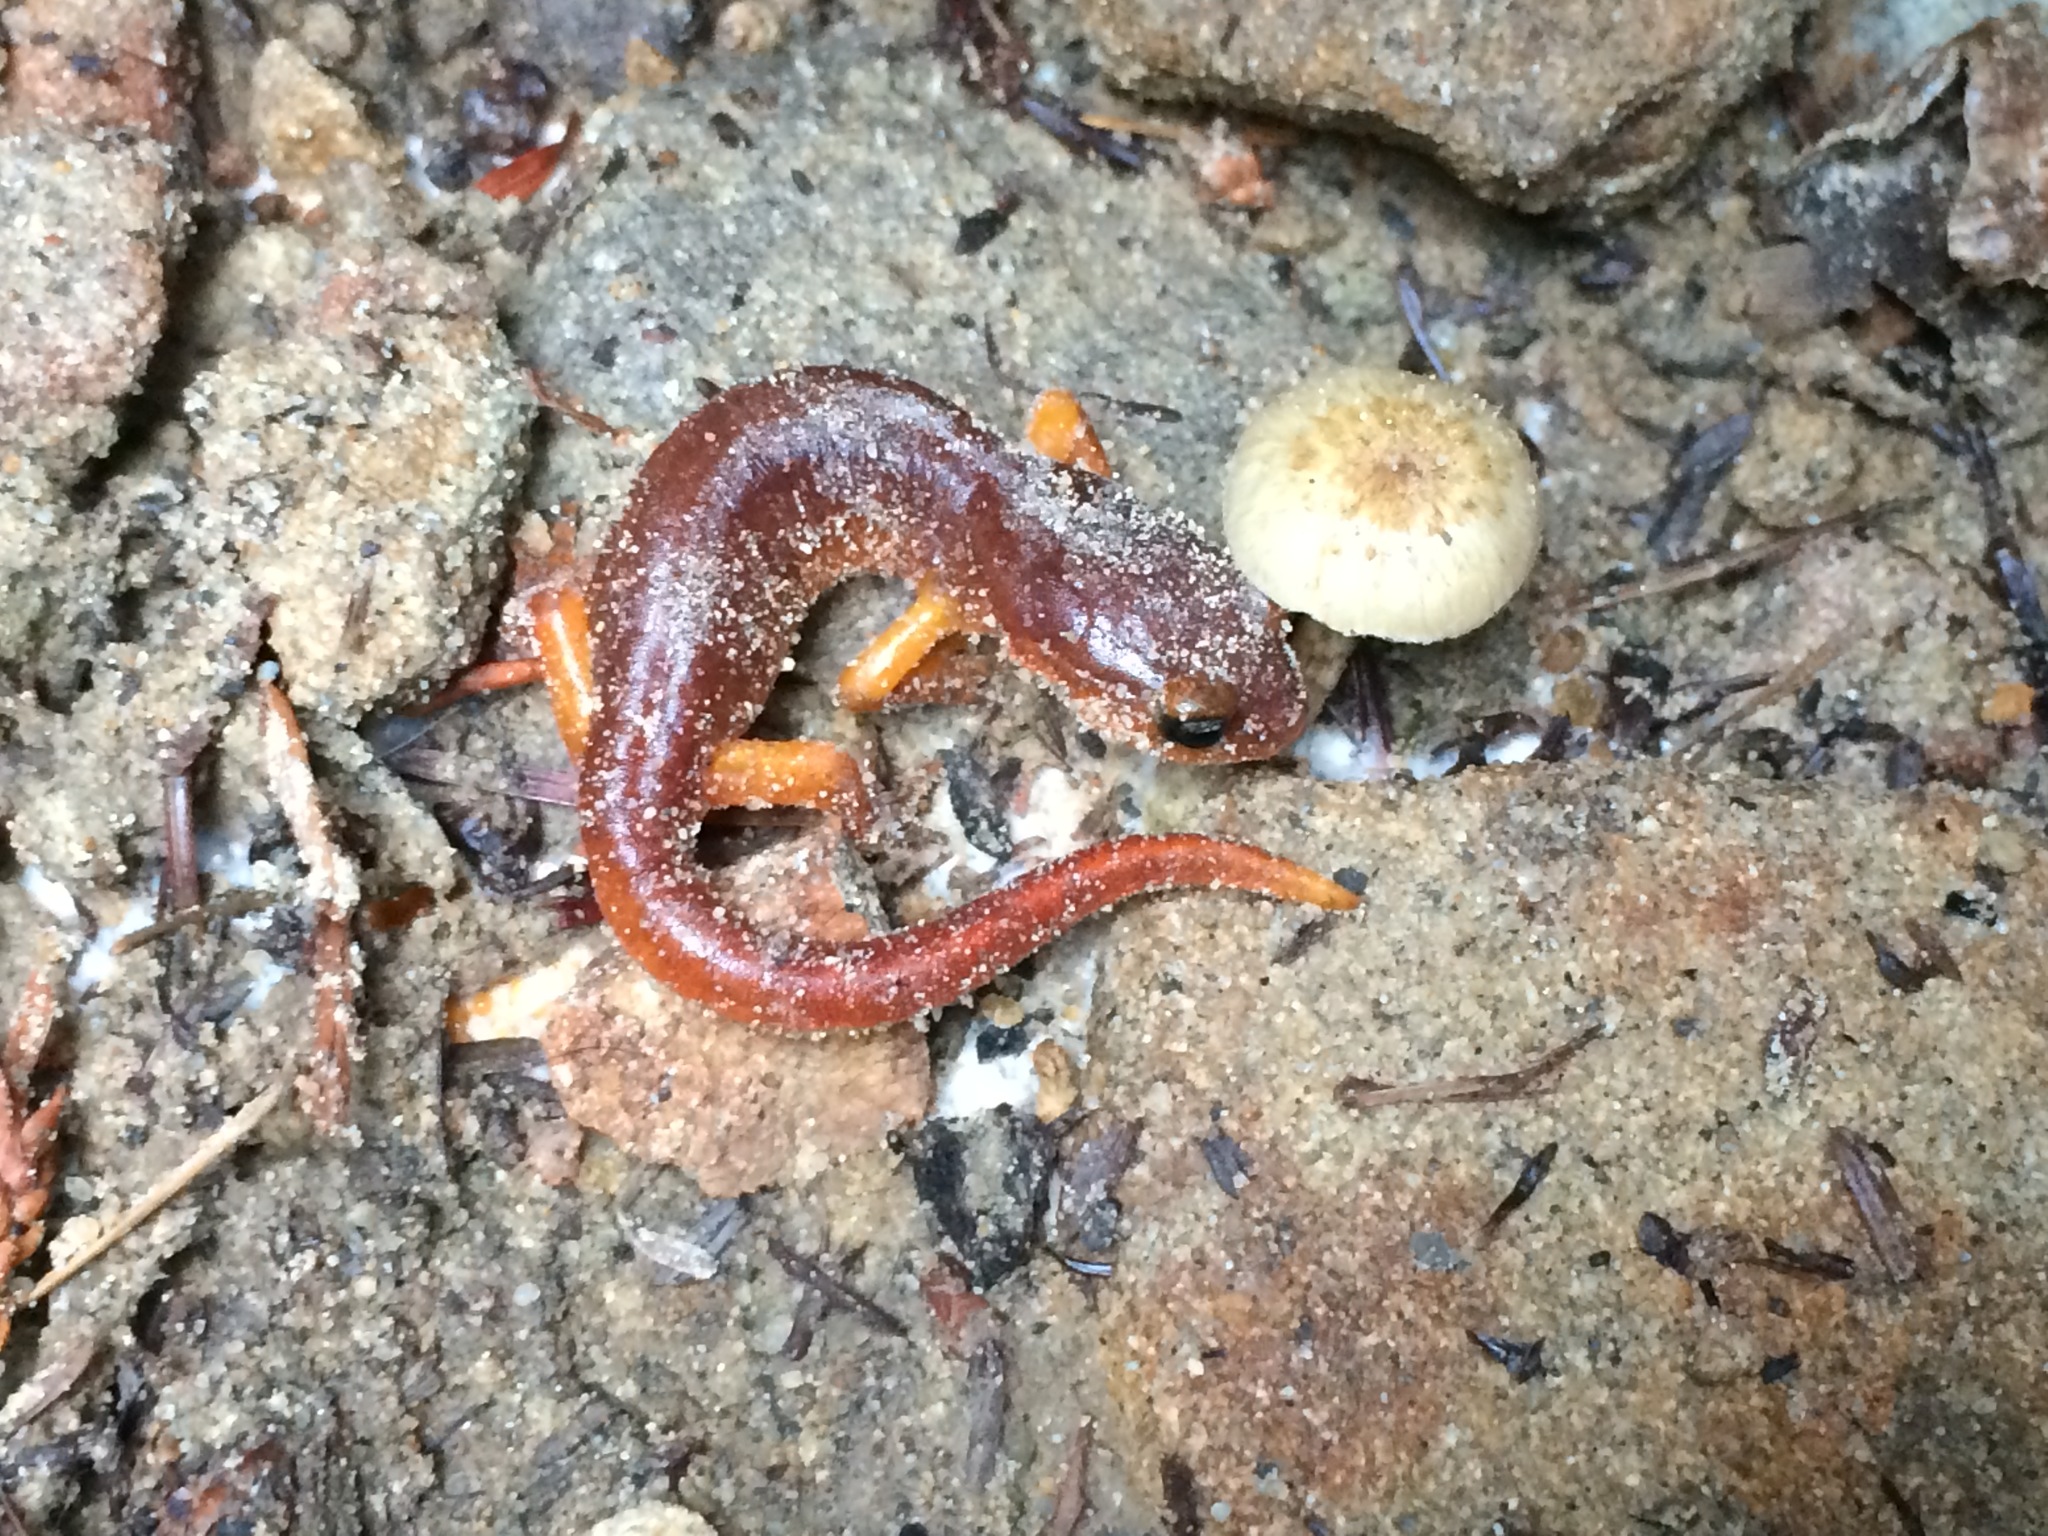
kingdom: Animalia
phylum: Chordata
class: Amphibia
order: Caudata
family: Plethodontidae
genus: Ensatina
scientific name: Ensatina eschscholtzii
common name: Ensatina
